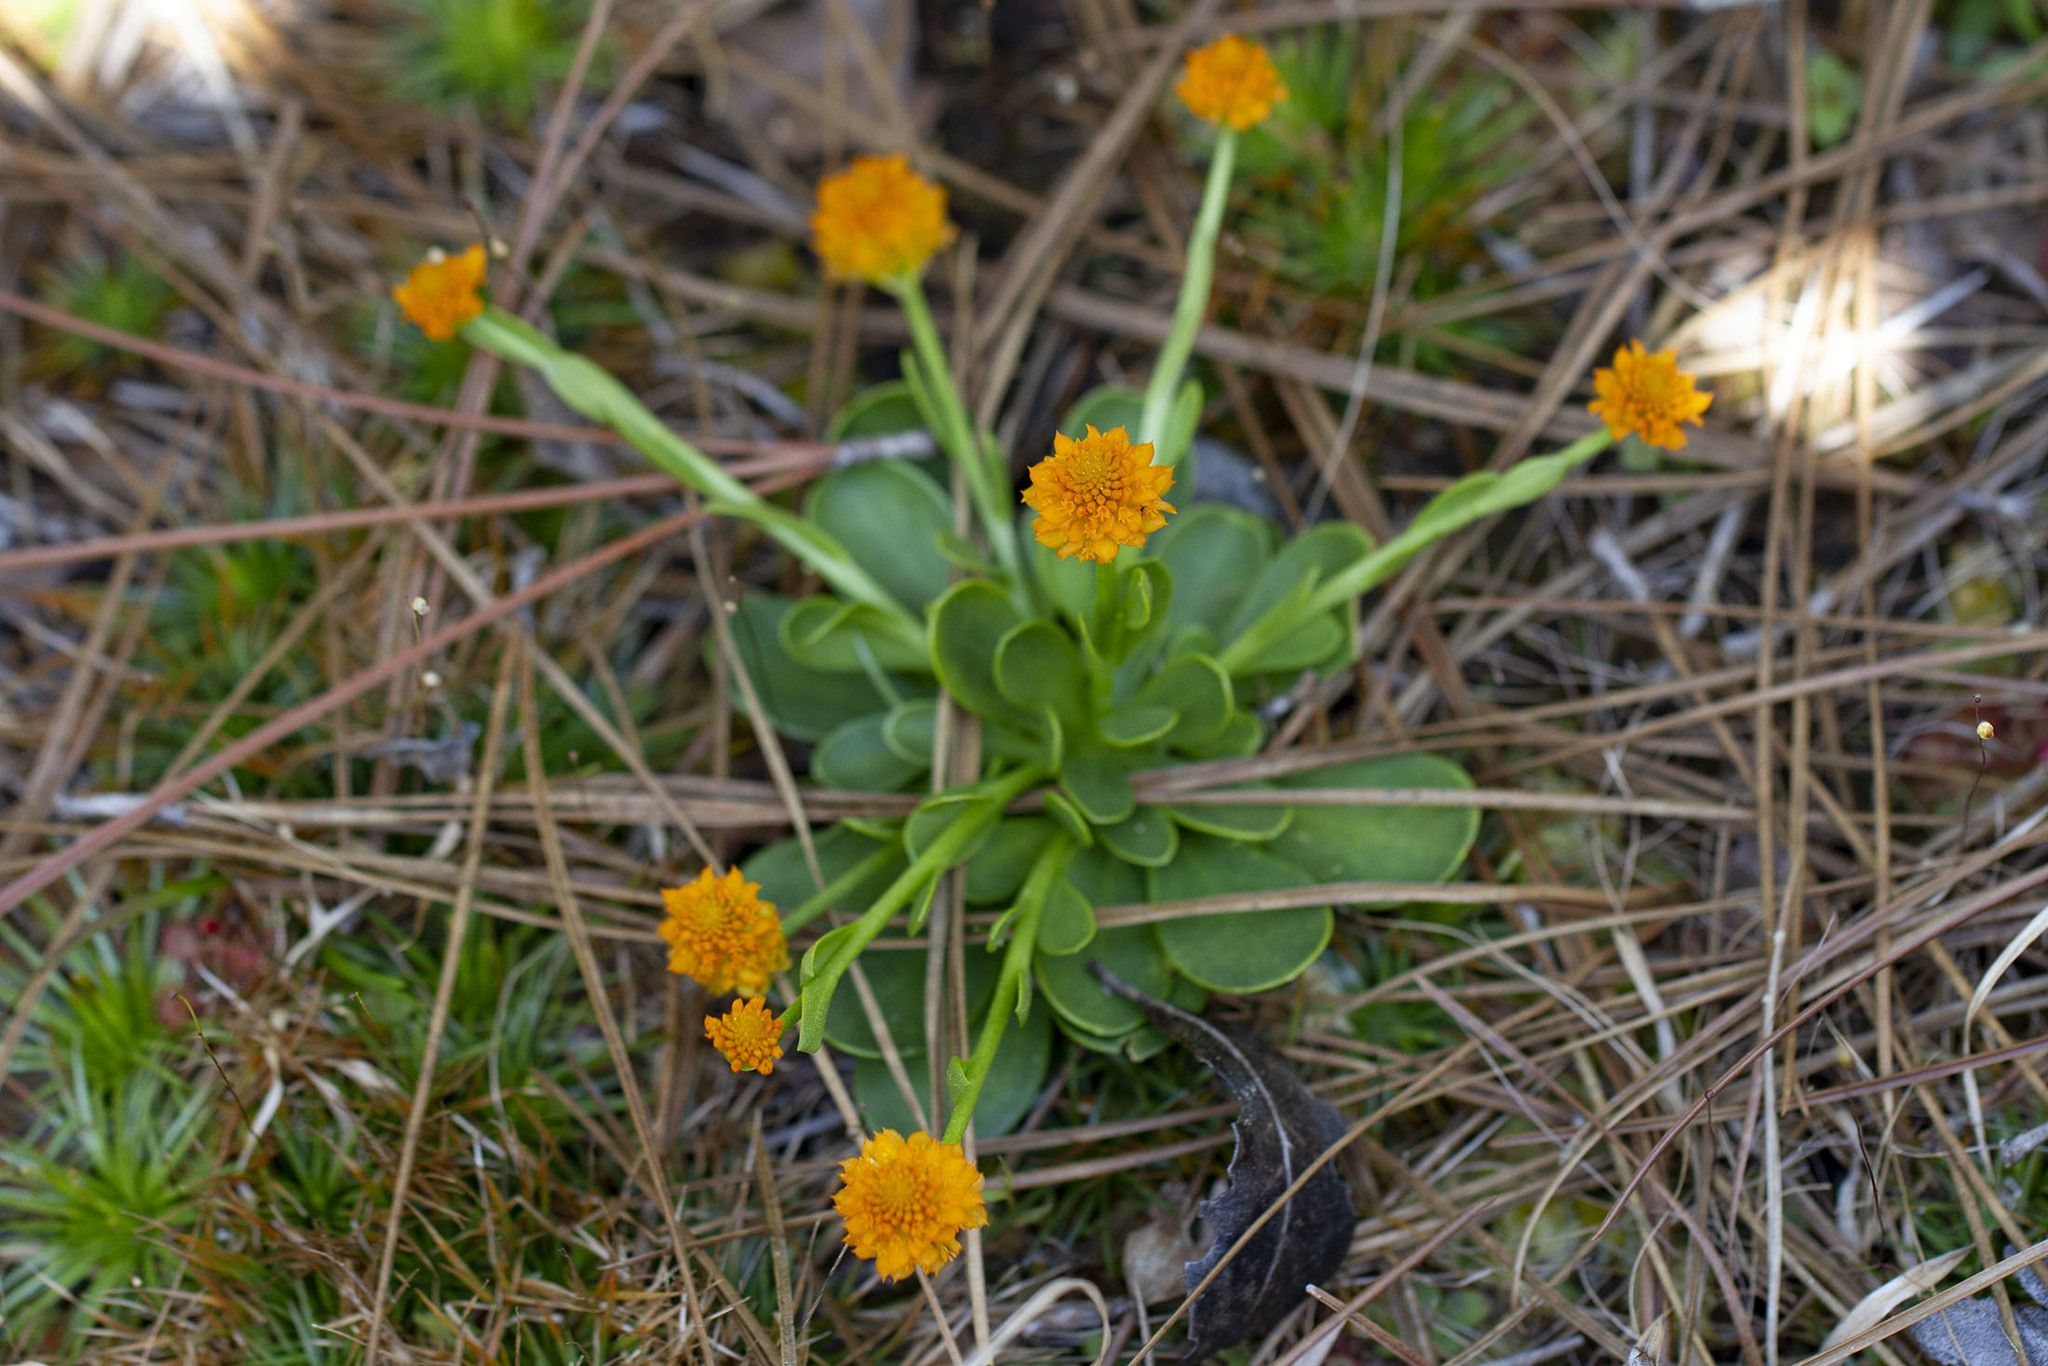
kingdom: Plantae
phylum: Tracheophyta
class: Magnoliopsida
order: Fabales
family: Polygalaceae
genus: Polygala
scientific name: Polygala lutea
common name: Orange milkwort
